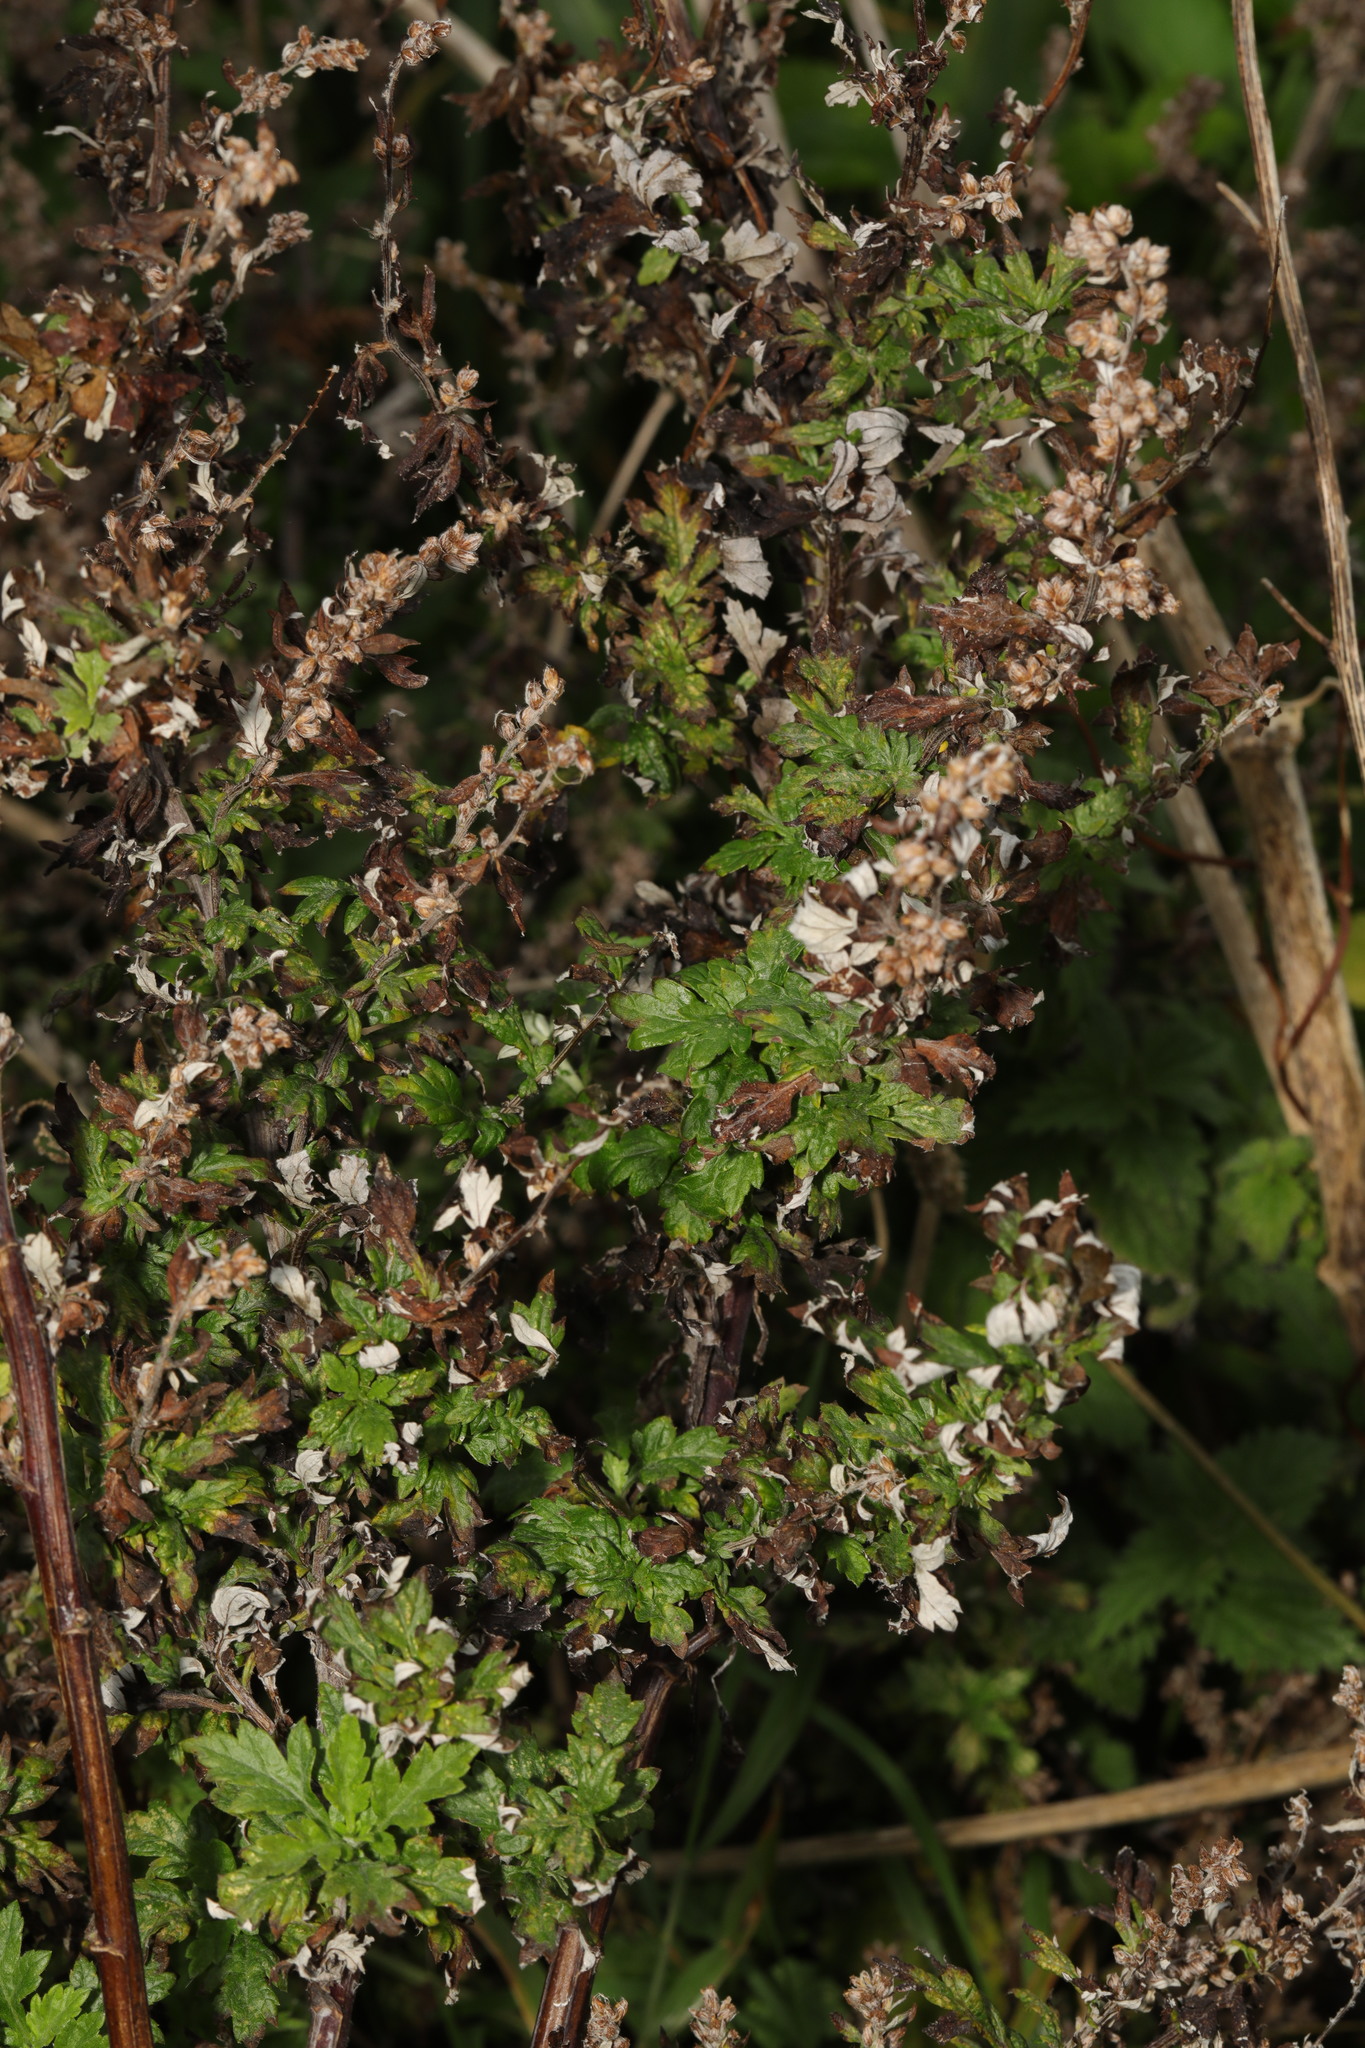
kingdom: Plantae
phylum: Tracheophyta
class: Magnoliopsida
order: Asterales
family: Asteraceae
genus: Artemisia
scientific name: Artemisia vulgaris
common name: Mugwort
